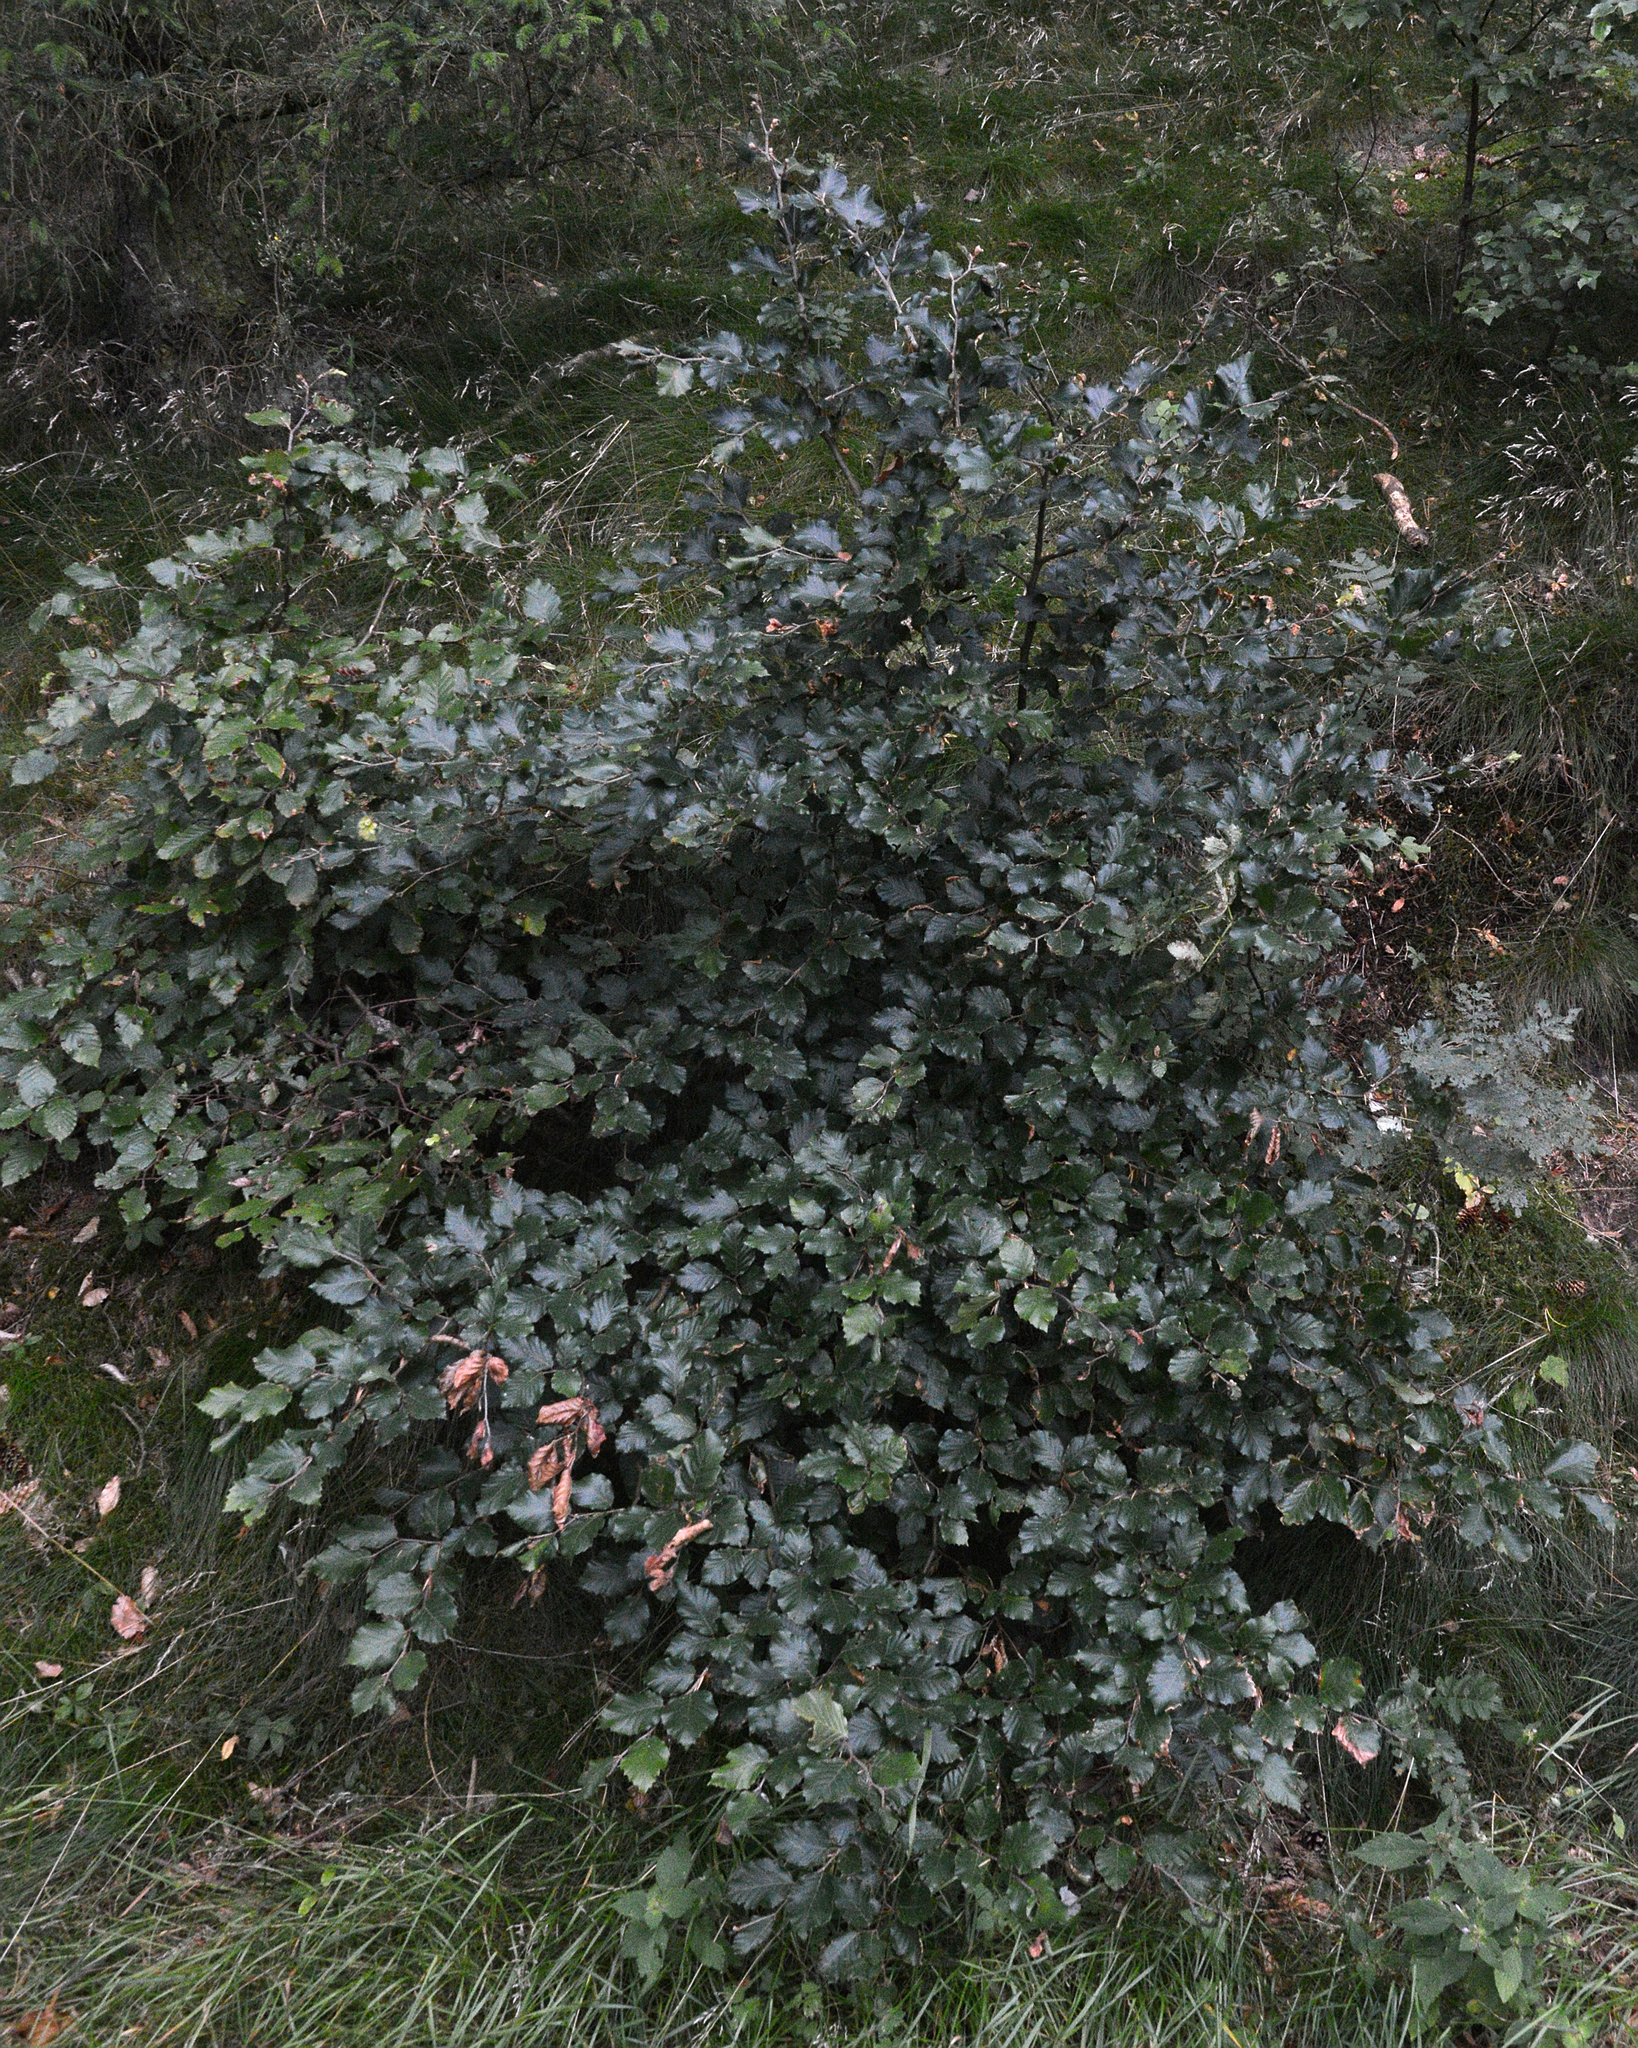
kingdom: Plantae
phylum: Tracheophyta
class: Magnoliopsida
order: Fagales
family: Fagaceae
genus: Fagus
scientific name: Fagus sylvatica
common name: Beech
